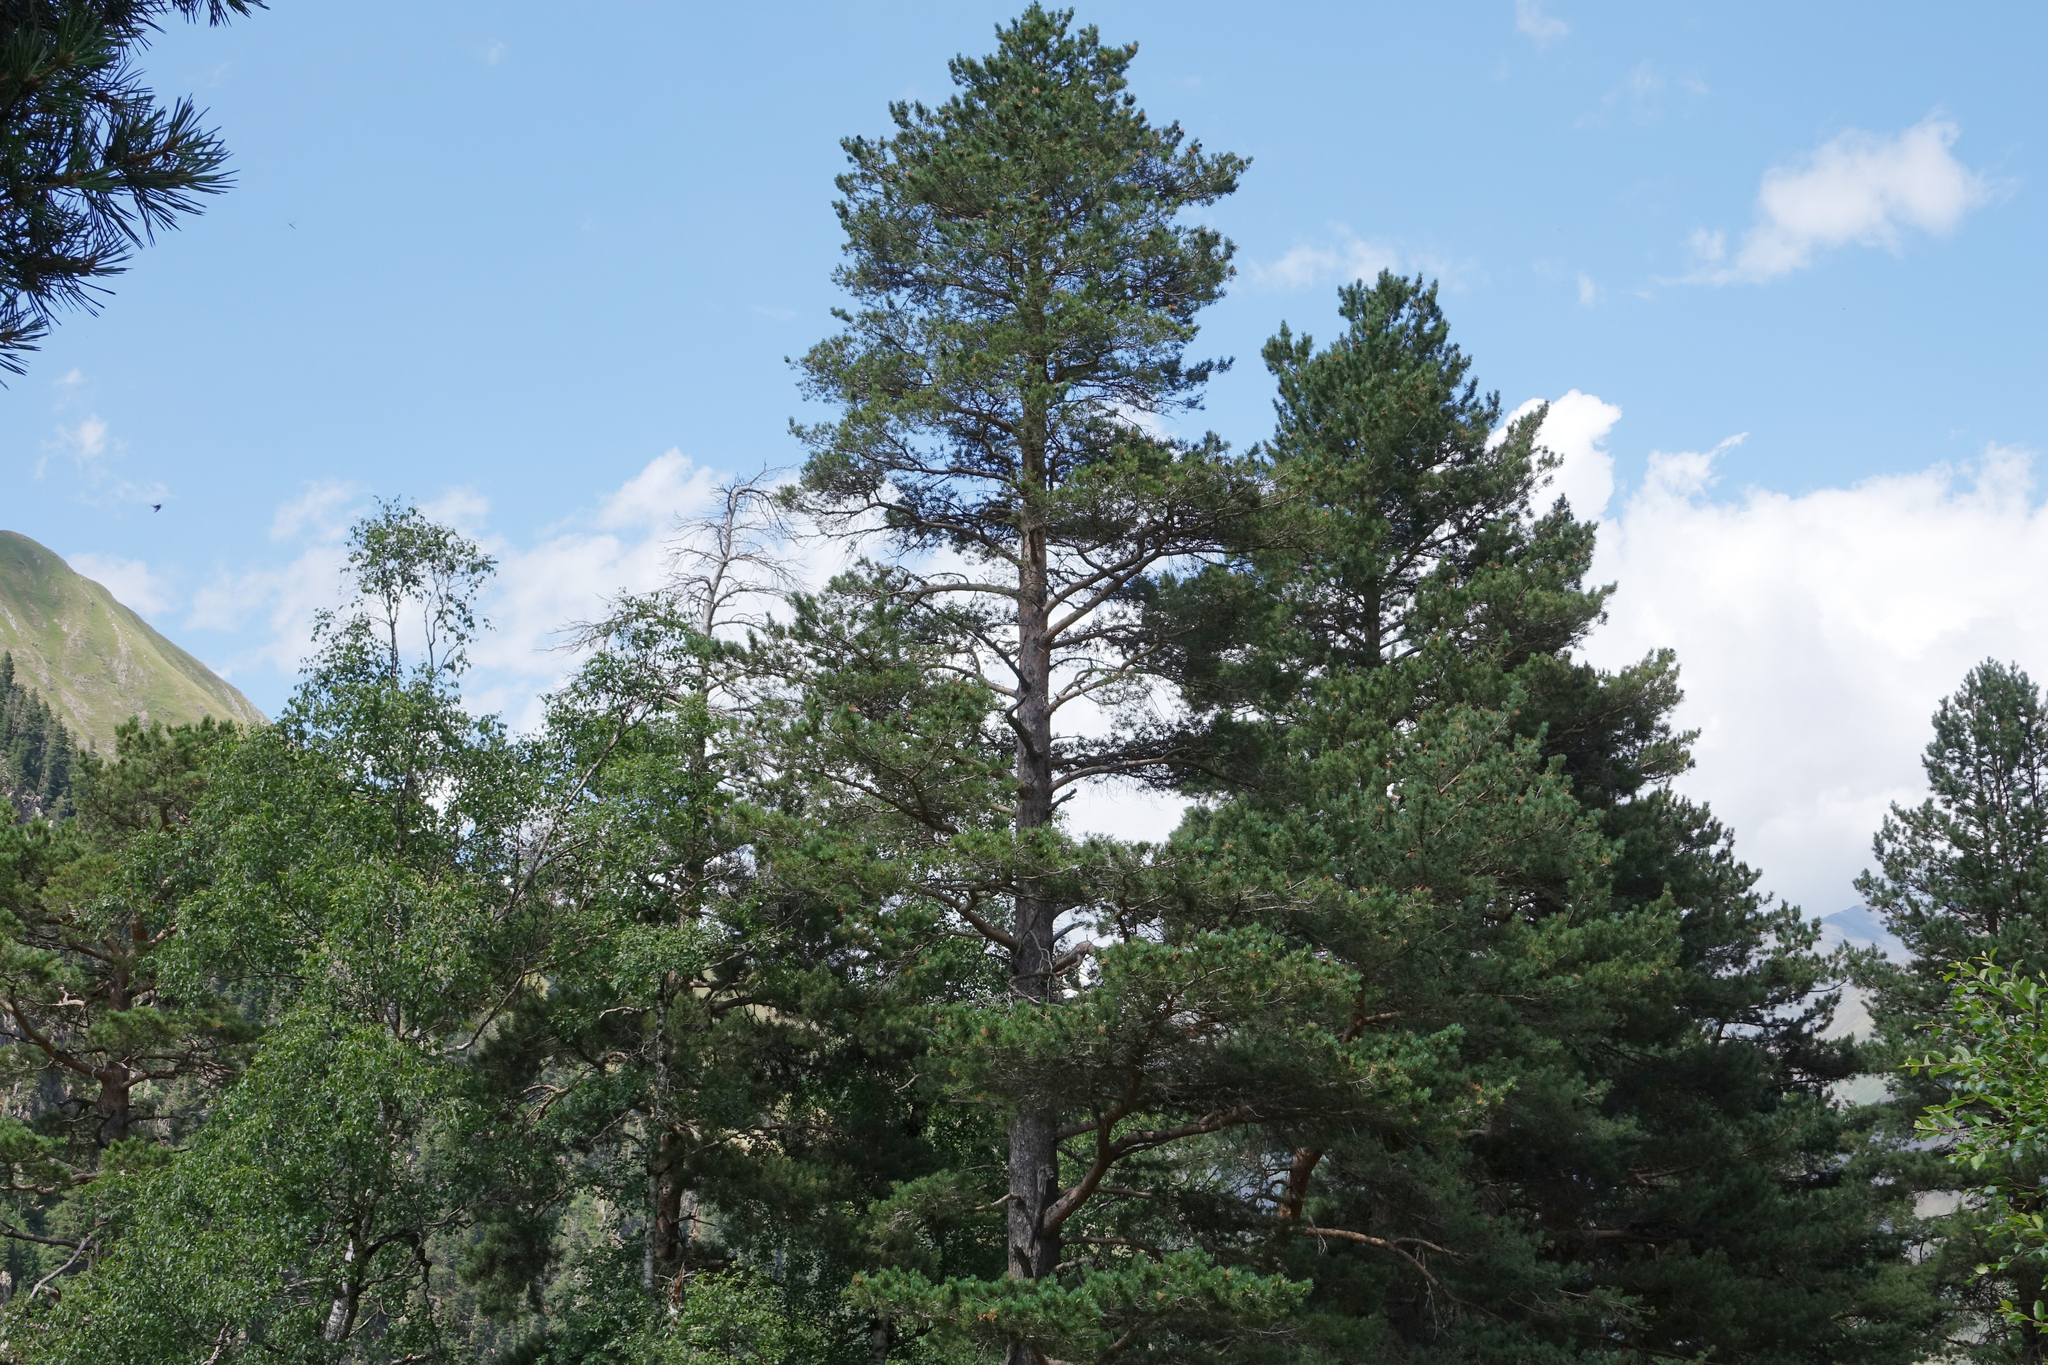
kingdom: Plantae
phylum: Tracheophyta
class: Pinopsida
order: Pinales
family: Pinaceae
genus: Pinus
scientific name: Pinus sylvestris
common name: Scots pine
